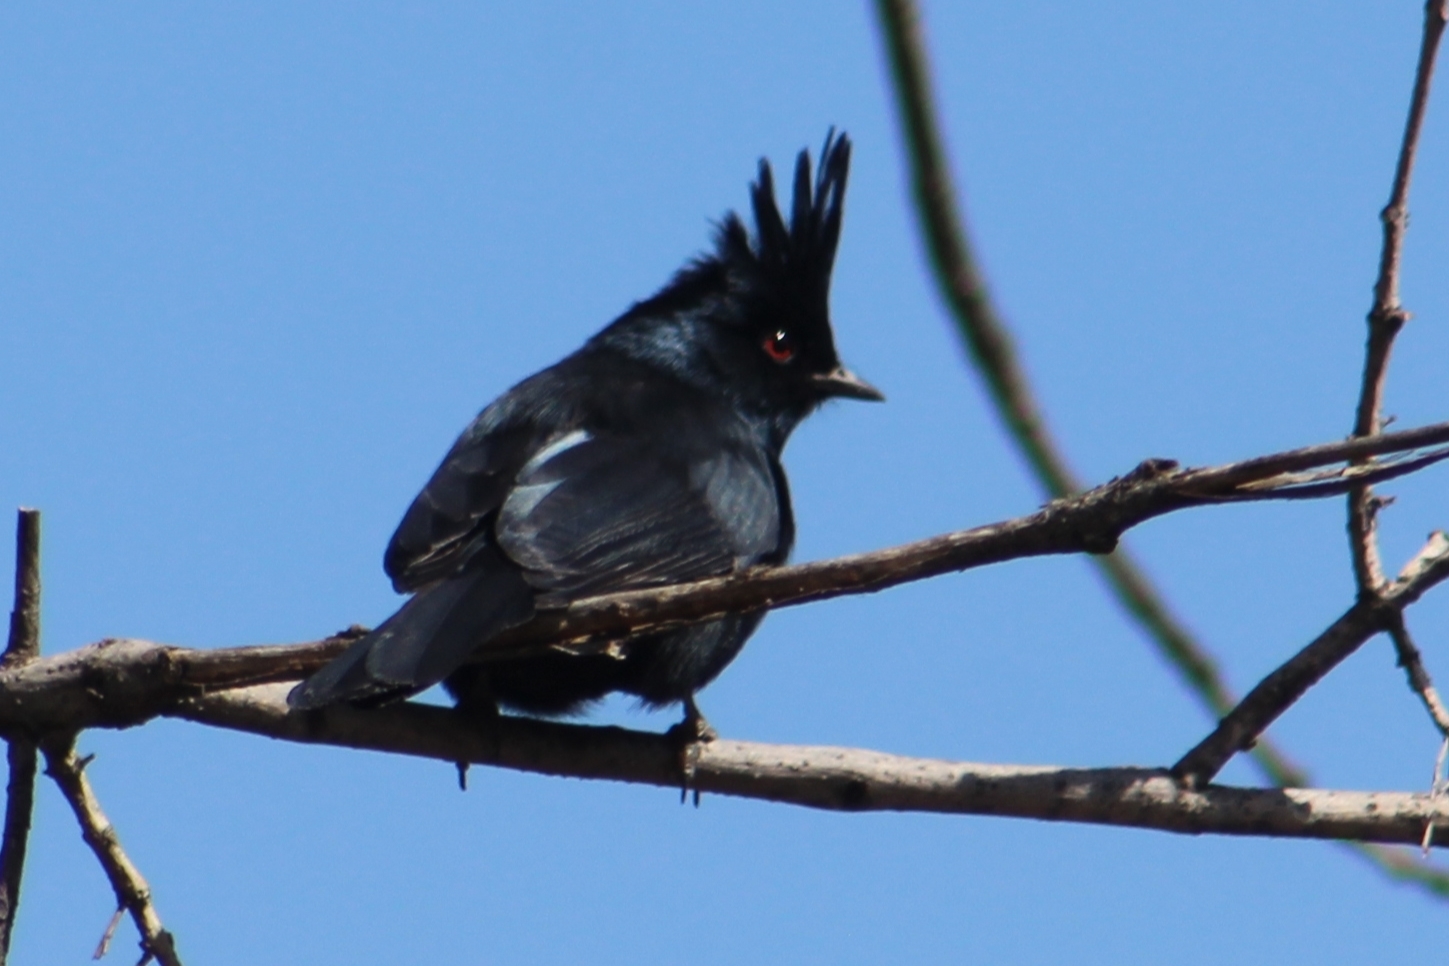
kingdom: Animalia
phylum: Chordata
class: Aves
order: Passeriformes
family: Ptilogonatidae
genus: Phainopepla
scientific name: Phainopepla nitens
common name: Phainopepla
